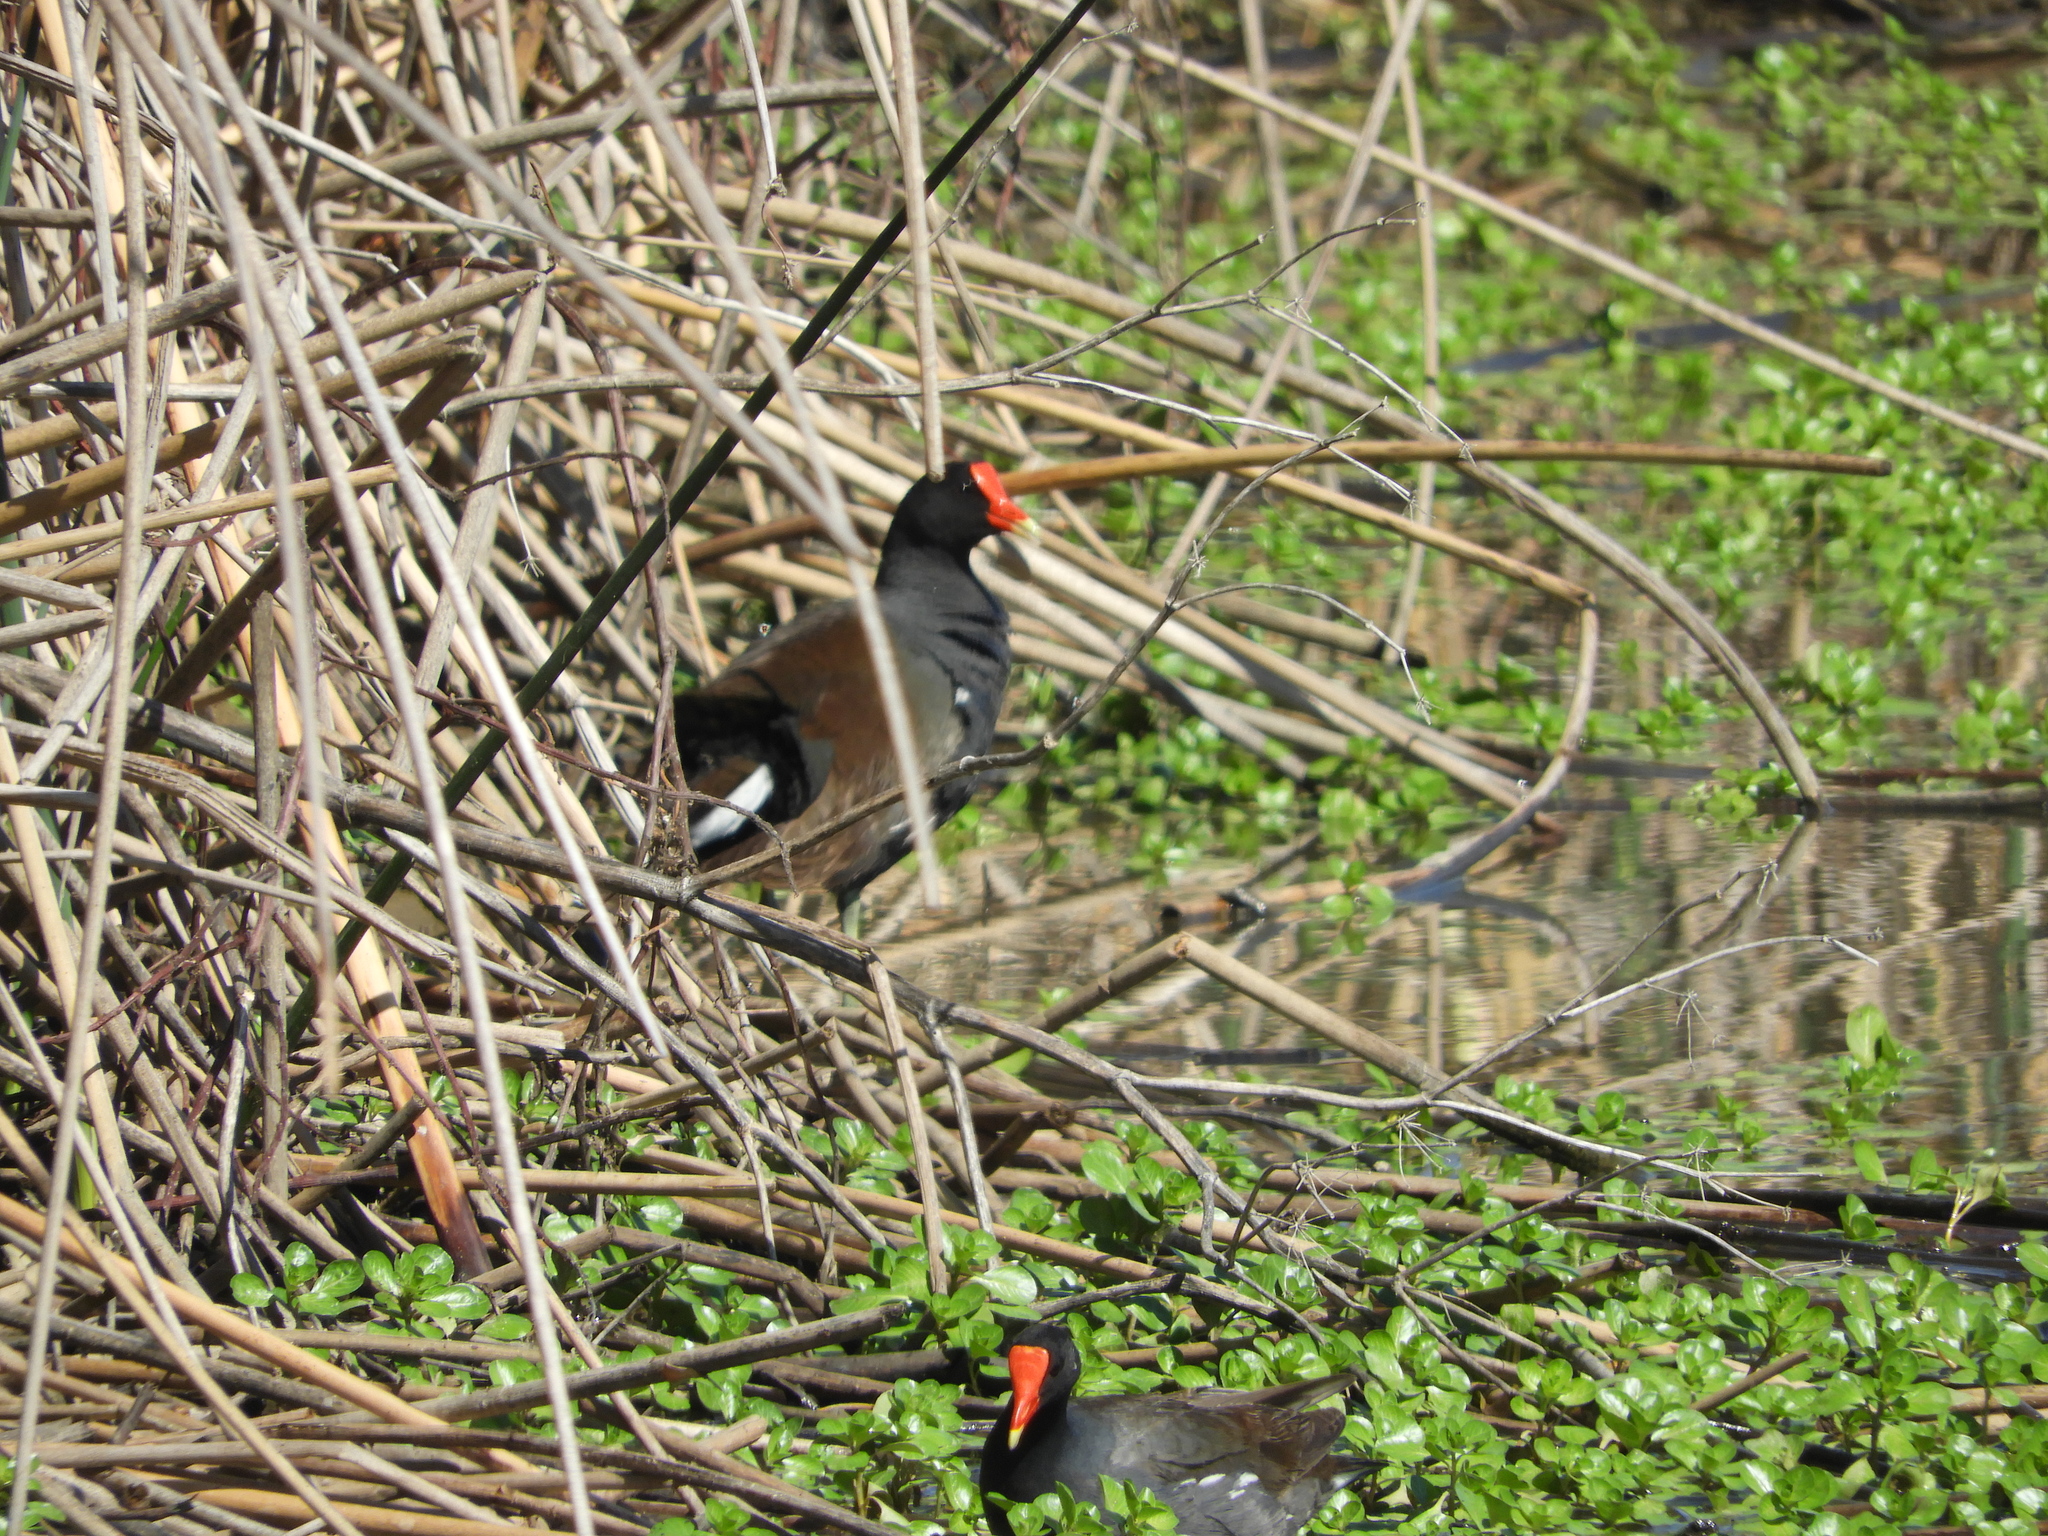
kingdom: Animalia
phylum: Chordata
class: Aves
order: Gruiformes
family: Rallidae
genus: Gallinula
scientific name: Gallinula chloropus
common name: Common moorhen
